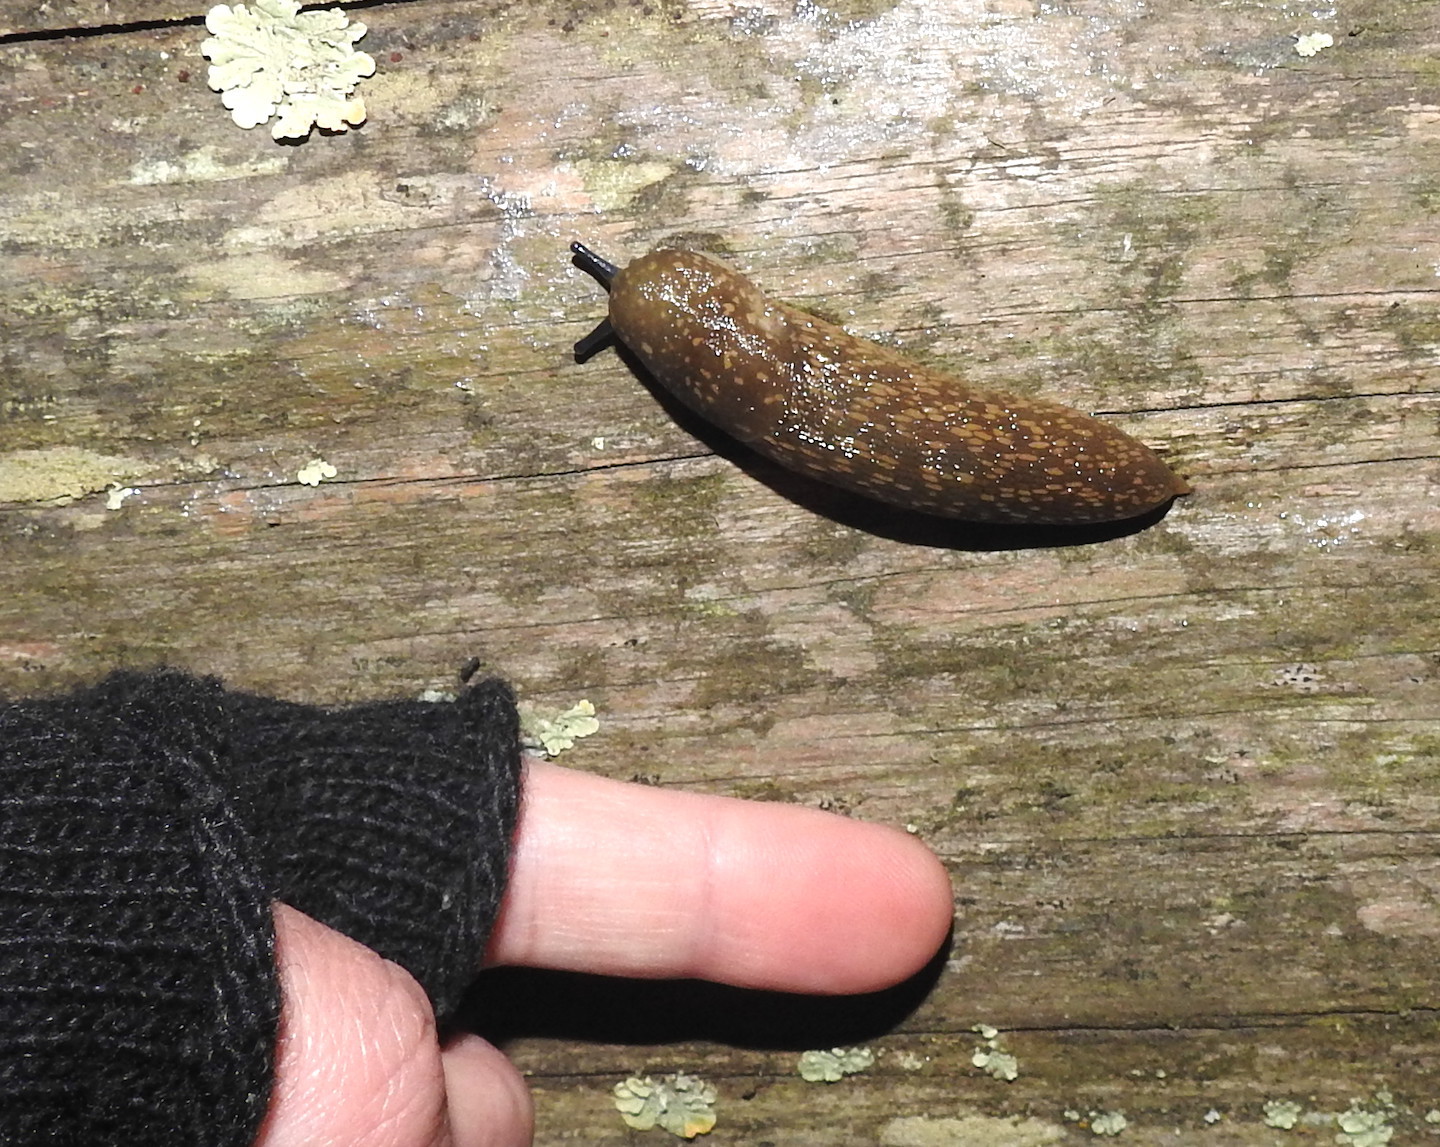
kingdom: Animalia
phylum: Mollusca
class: Gastropoda
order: Stylommatophora
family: Limacidae
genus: Limacus
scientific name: Limacus flavus
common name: Yellow gardenslug
